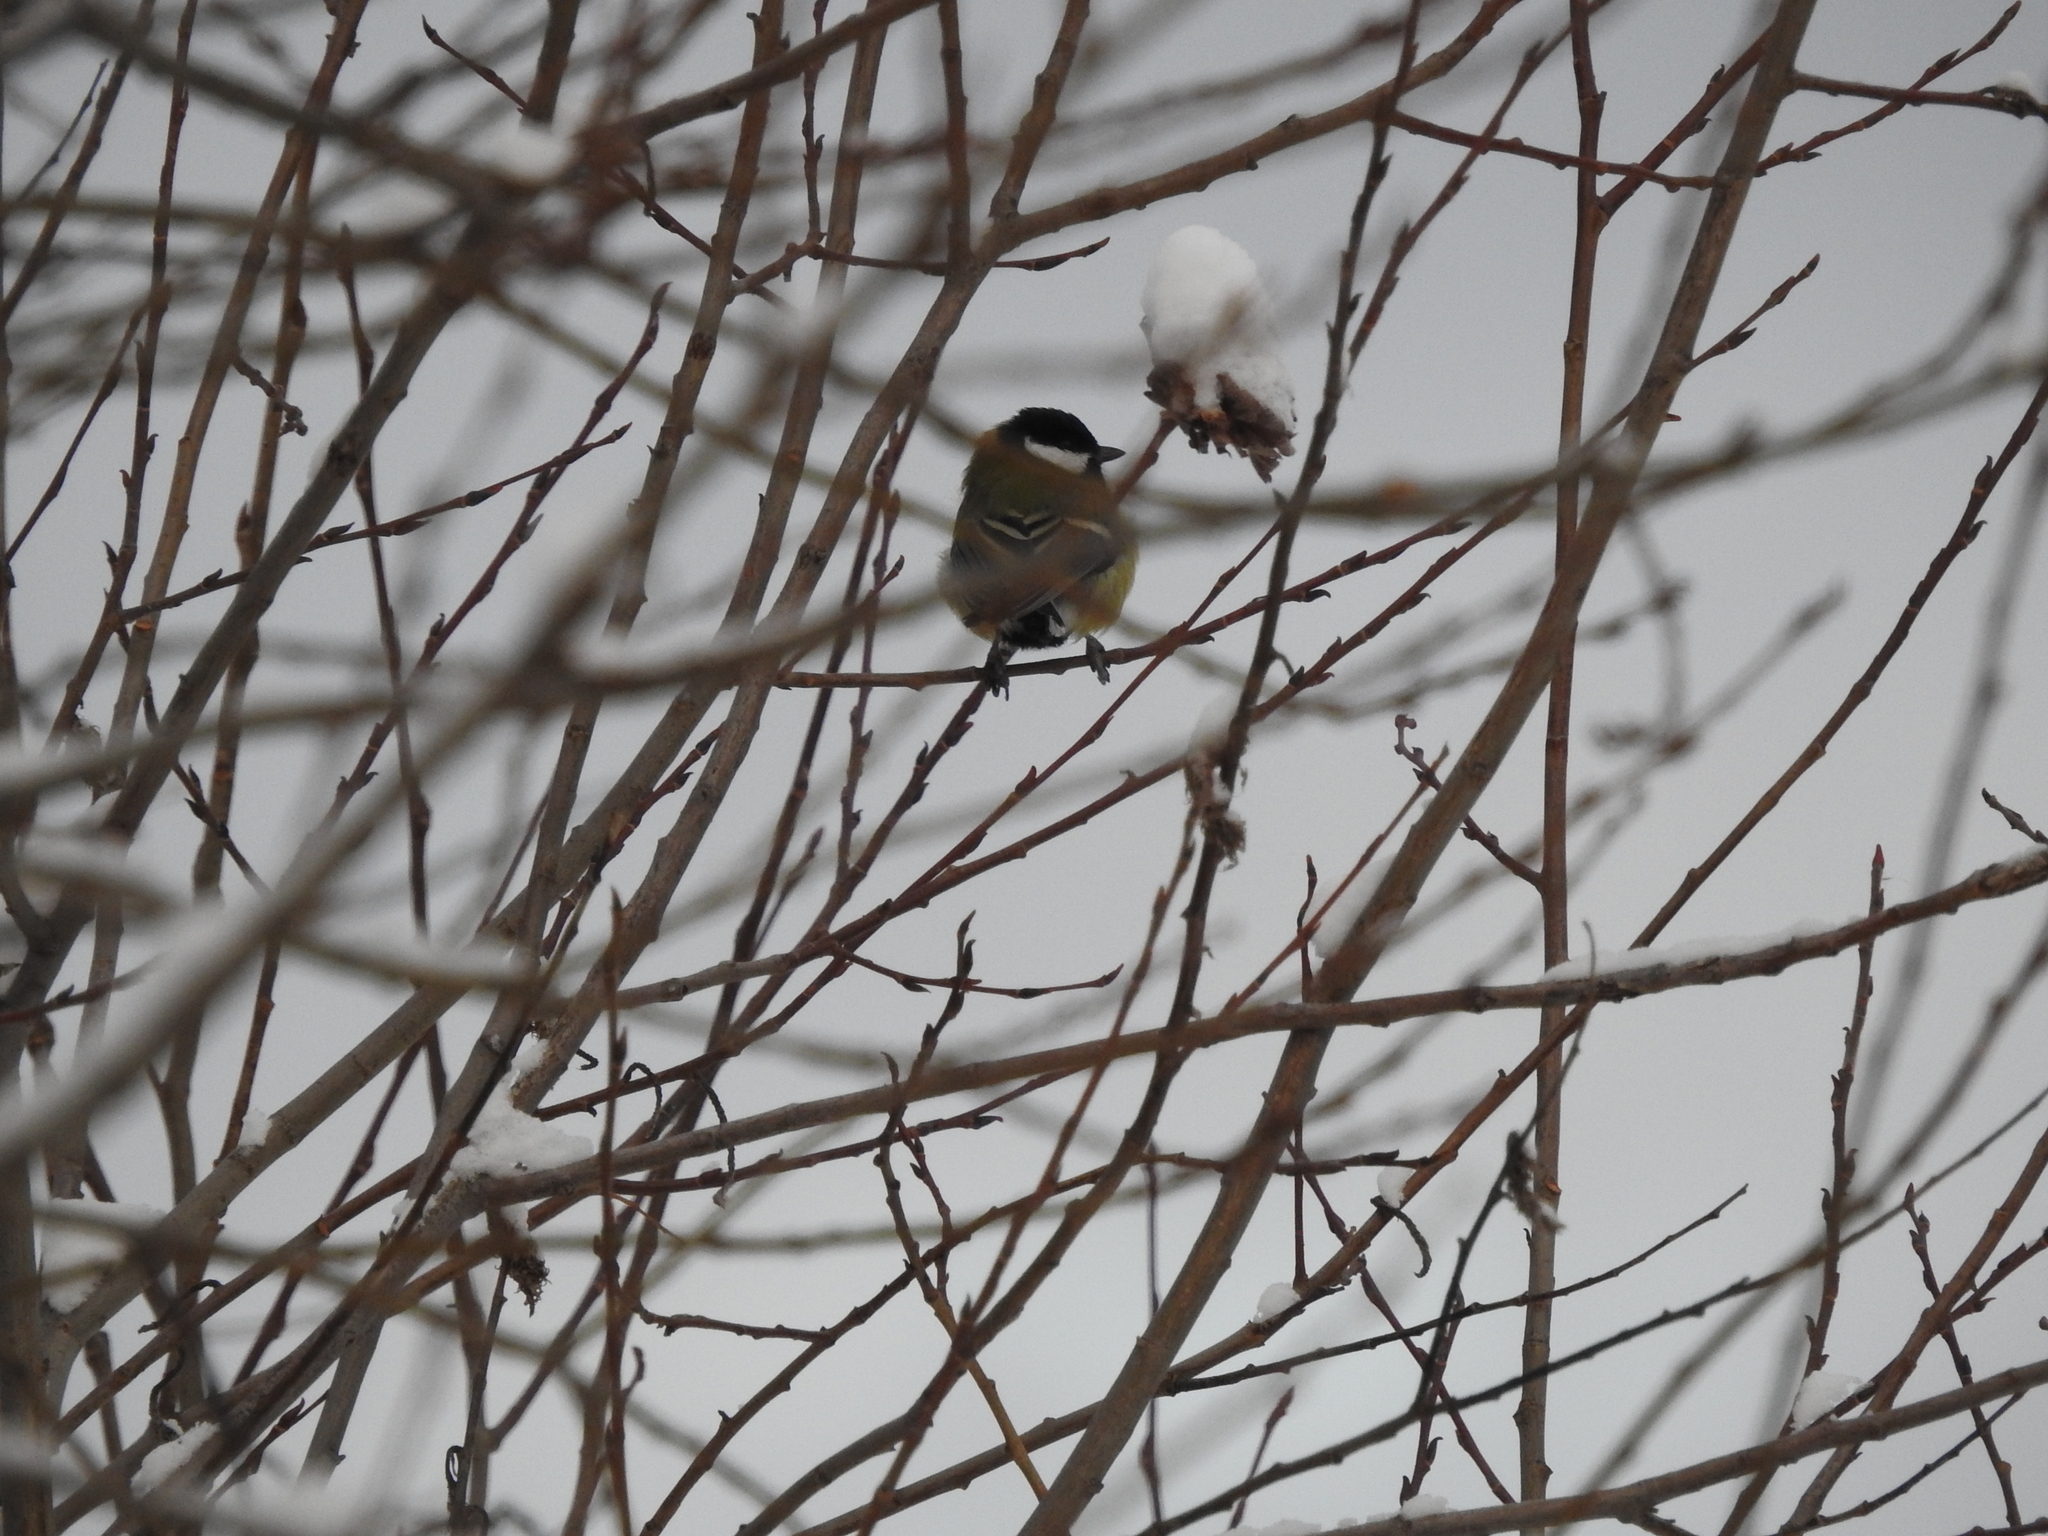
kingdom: Animalia
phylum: Chordata
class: Aves
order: Passeriformes
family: Paridae
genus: Parus
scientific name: Parus major
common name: Great tit
